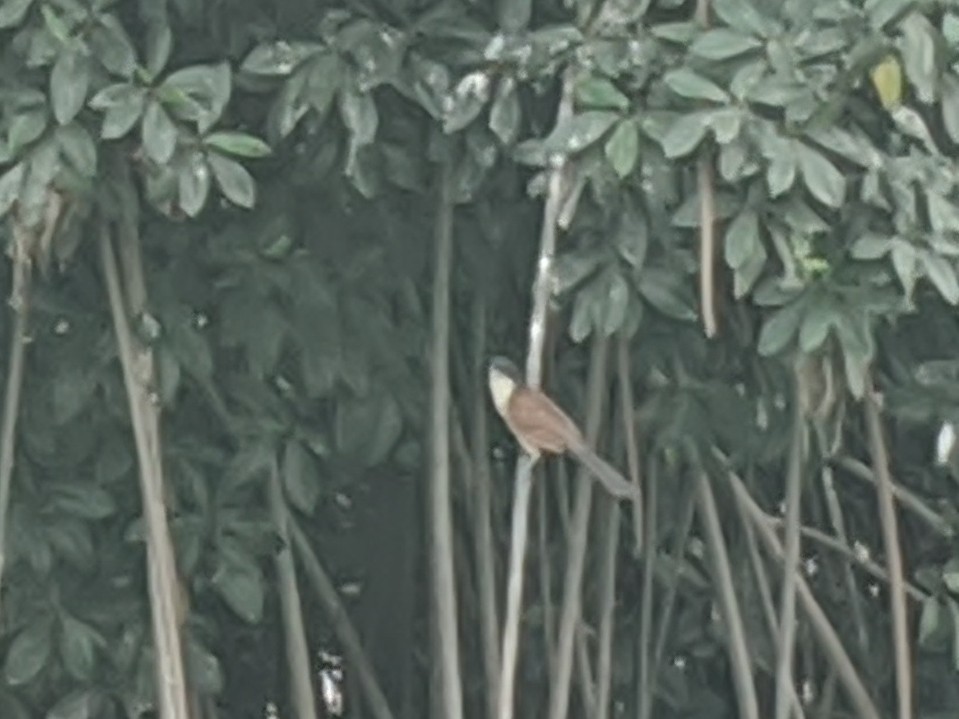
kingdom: Animalia
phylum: Chordata
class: Aves
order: Cuculiformes
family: Cuculidae
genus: Centropus
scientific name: Centropus senegalensis
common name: Senegal coucal
